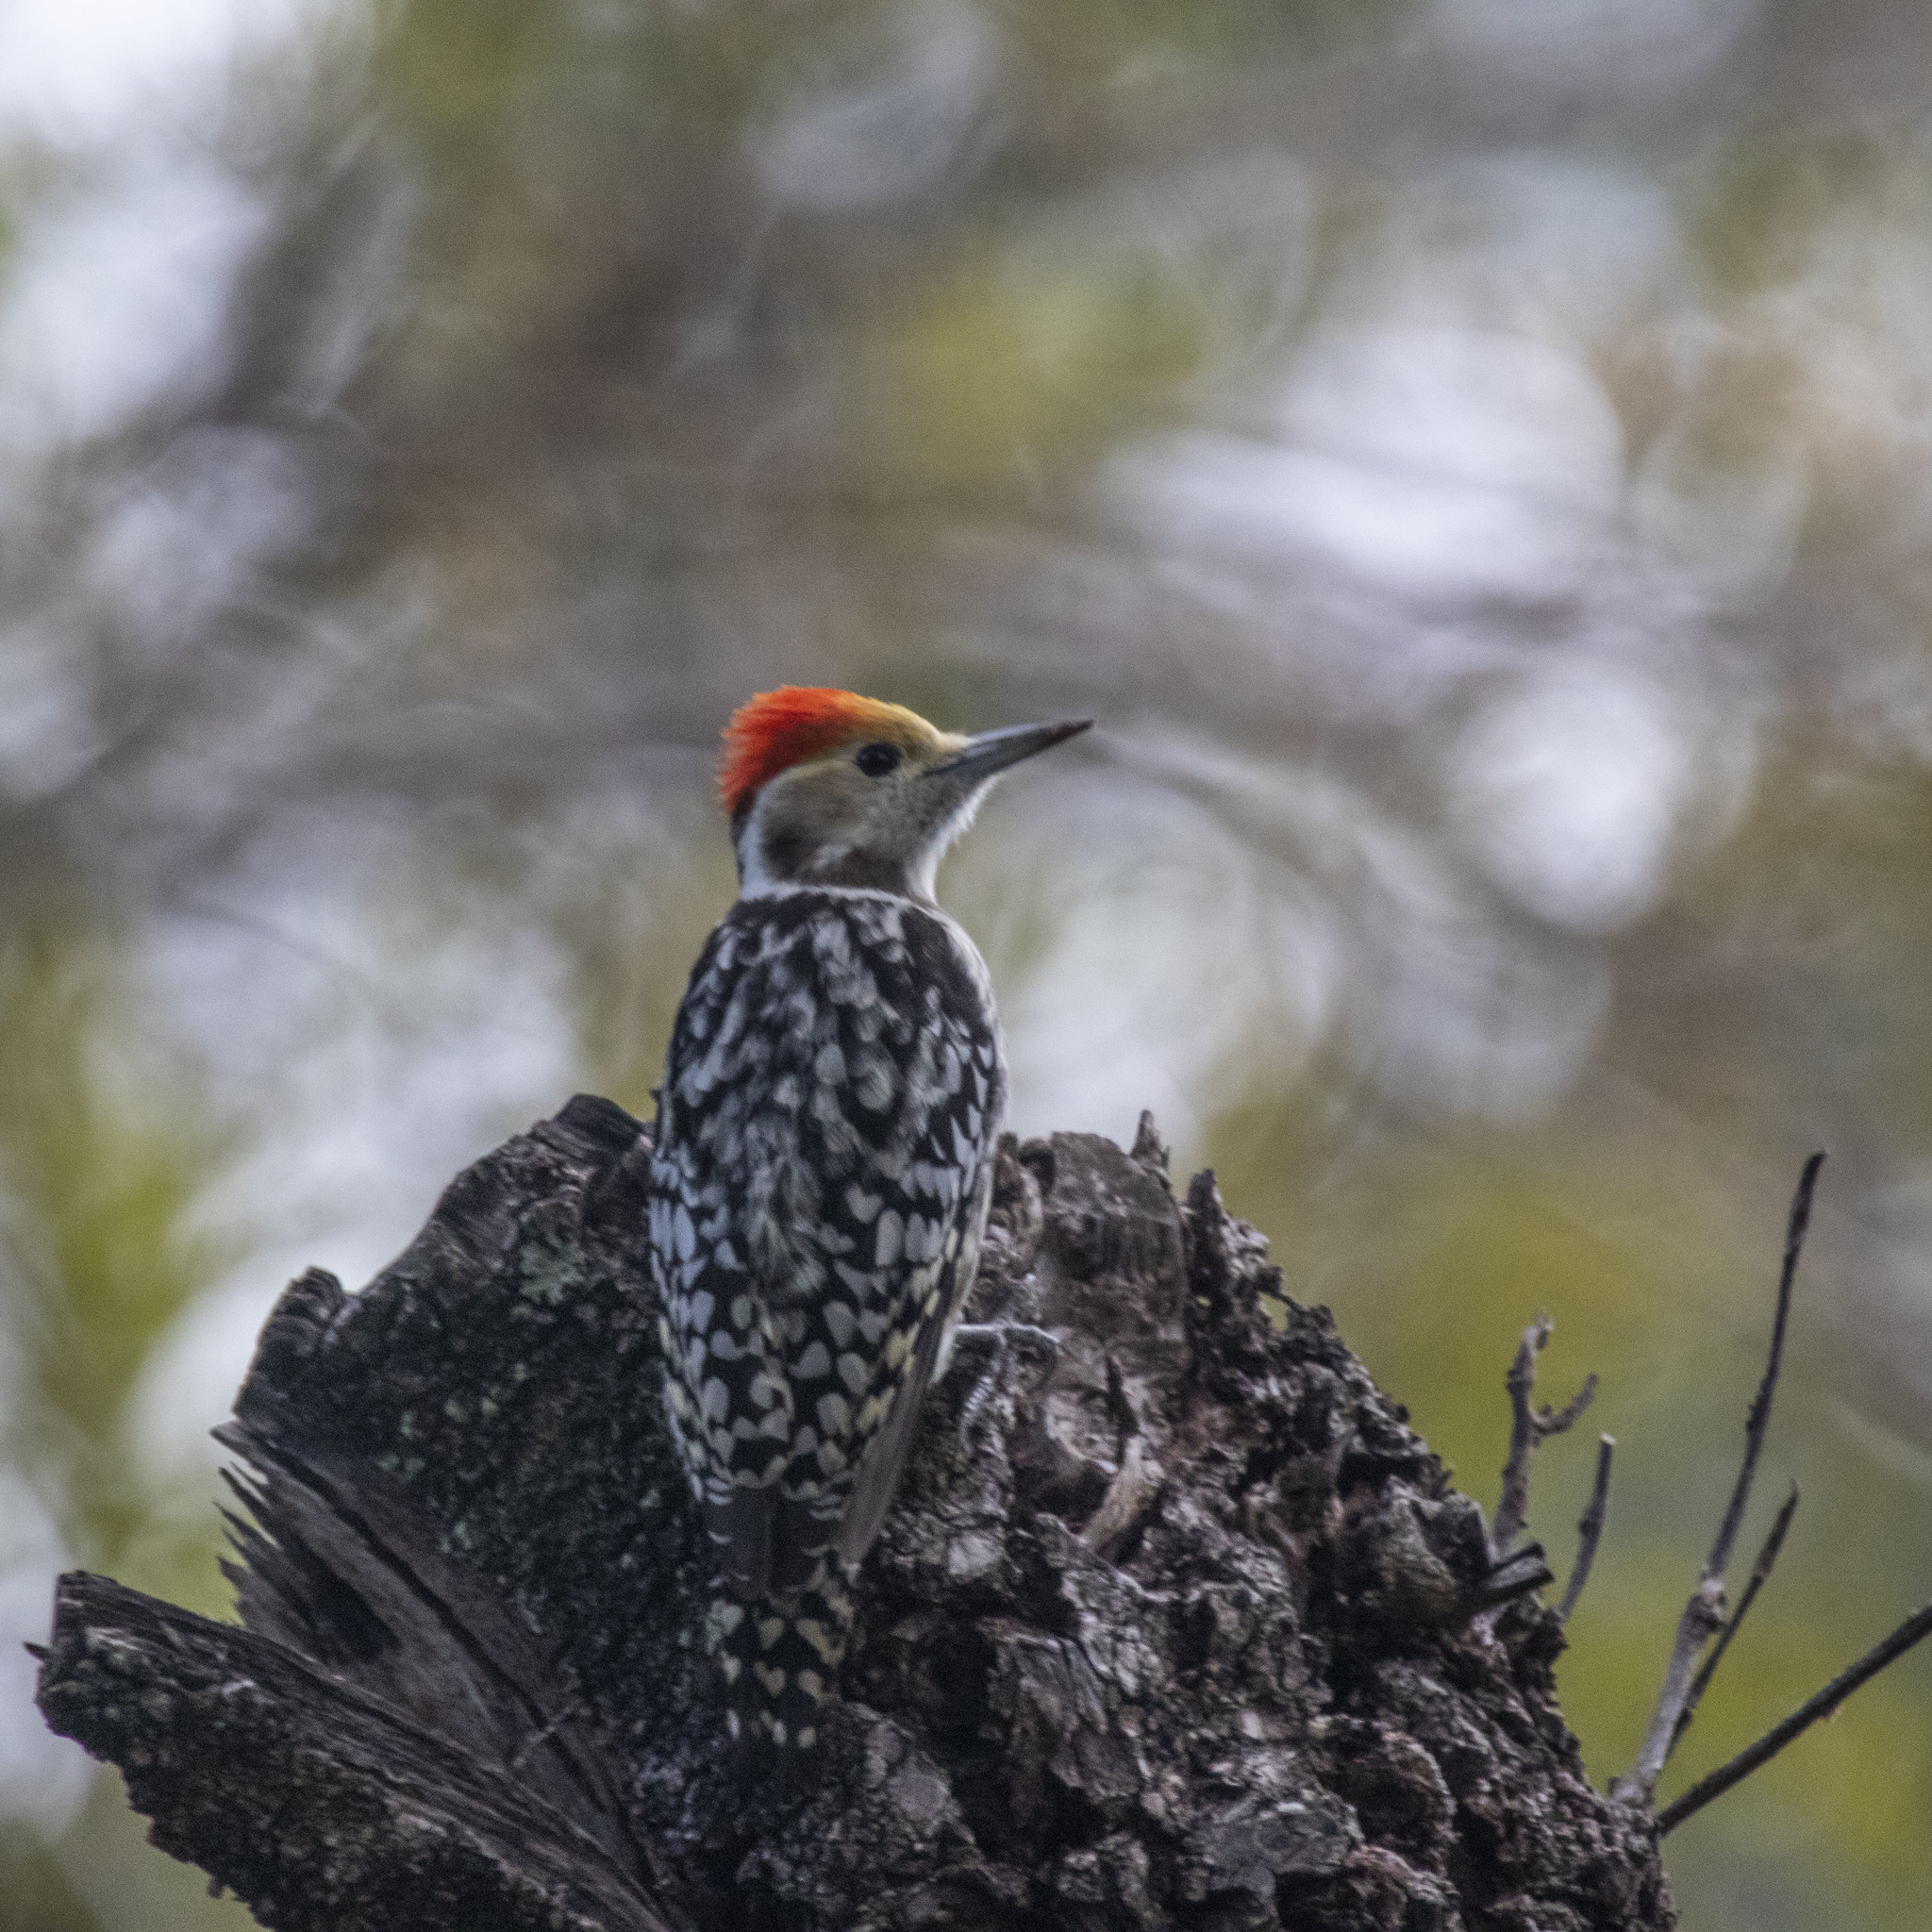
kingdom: Animalia
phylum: Chordata
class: Aves
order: Piciformes
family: Picidae
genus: Leiopicus
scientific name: Leiopicus mahrattensis
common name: Yellow-crowned woodpecker
